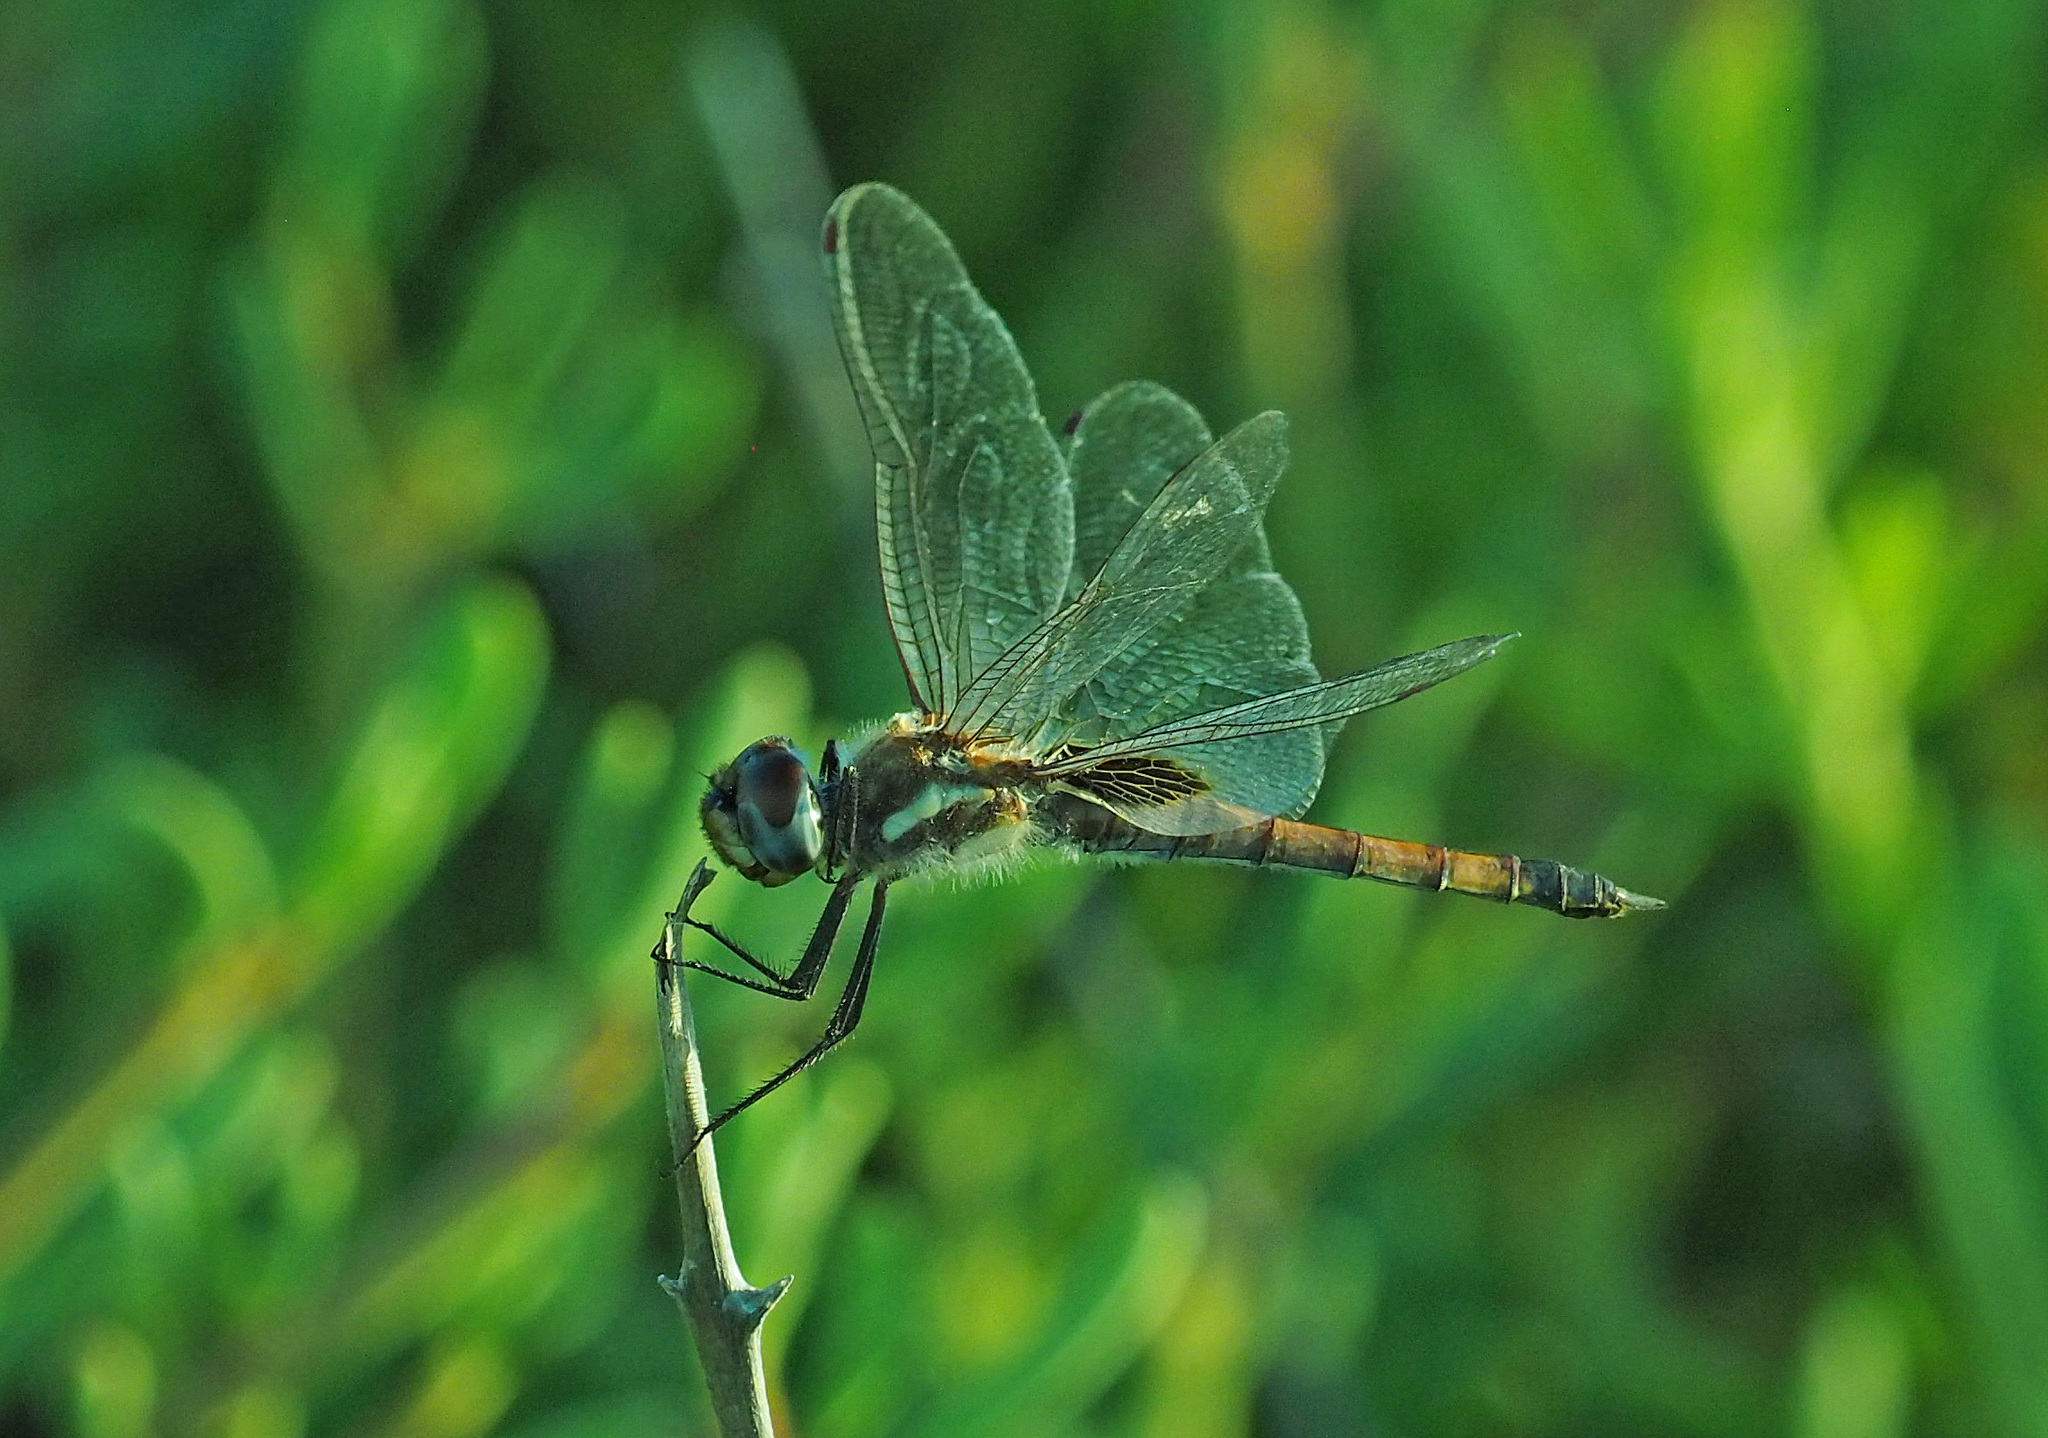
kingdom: Animalia
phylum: Arthropoda
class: Insecta
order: Odonata
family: Libellulidae
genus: Tramea
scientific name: Tramea darwini
